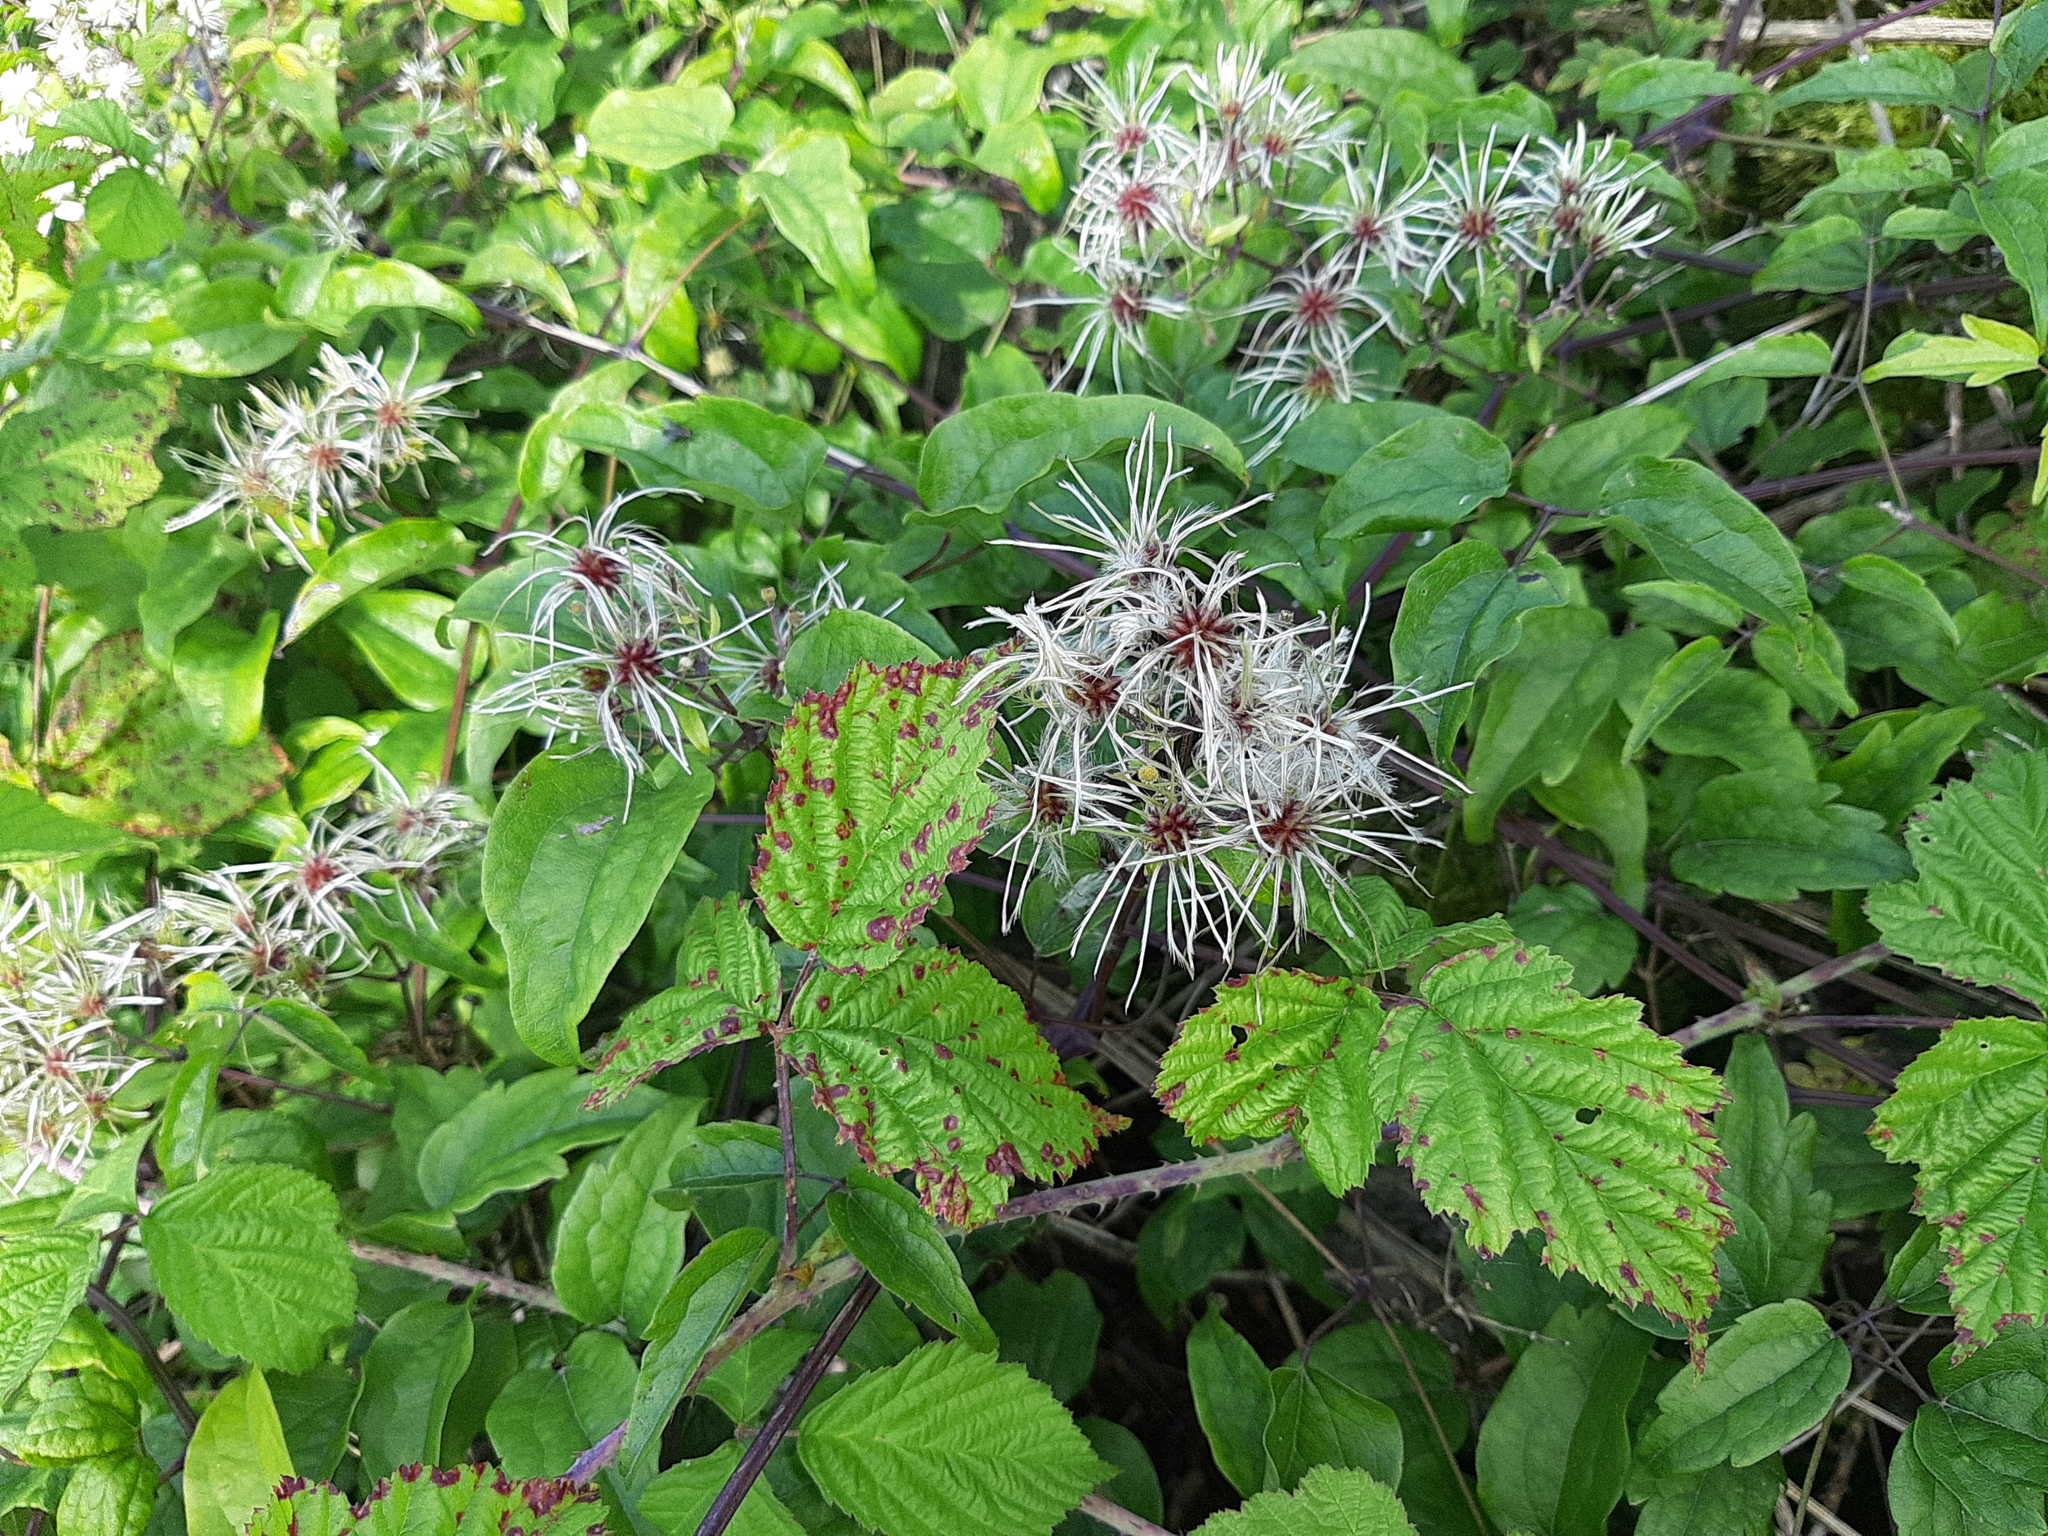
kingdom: Plantae
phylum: Tracheophyta
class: Magnoliopsida
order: Ranunculales
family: Ranunculaceae
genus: Clematis
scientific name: Clematis vitalba
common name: Evergreen clematis
